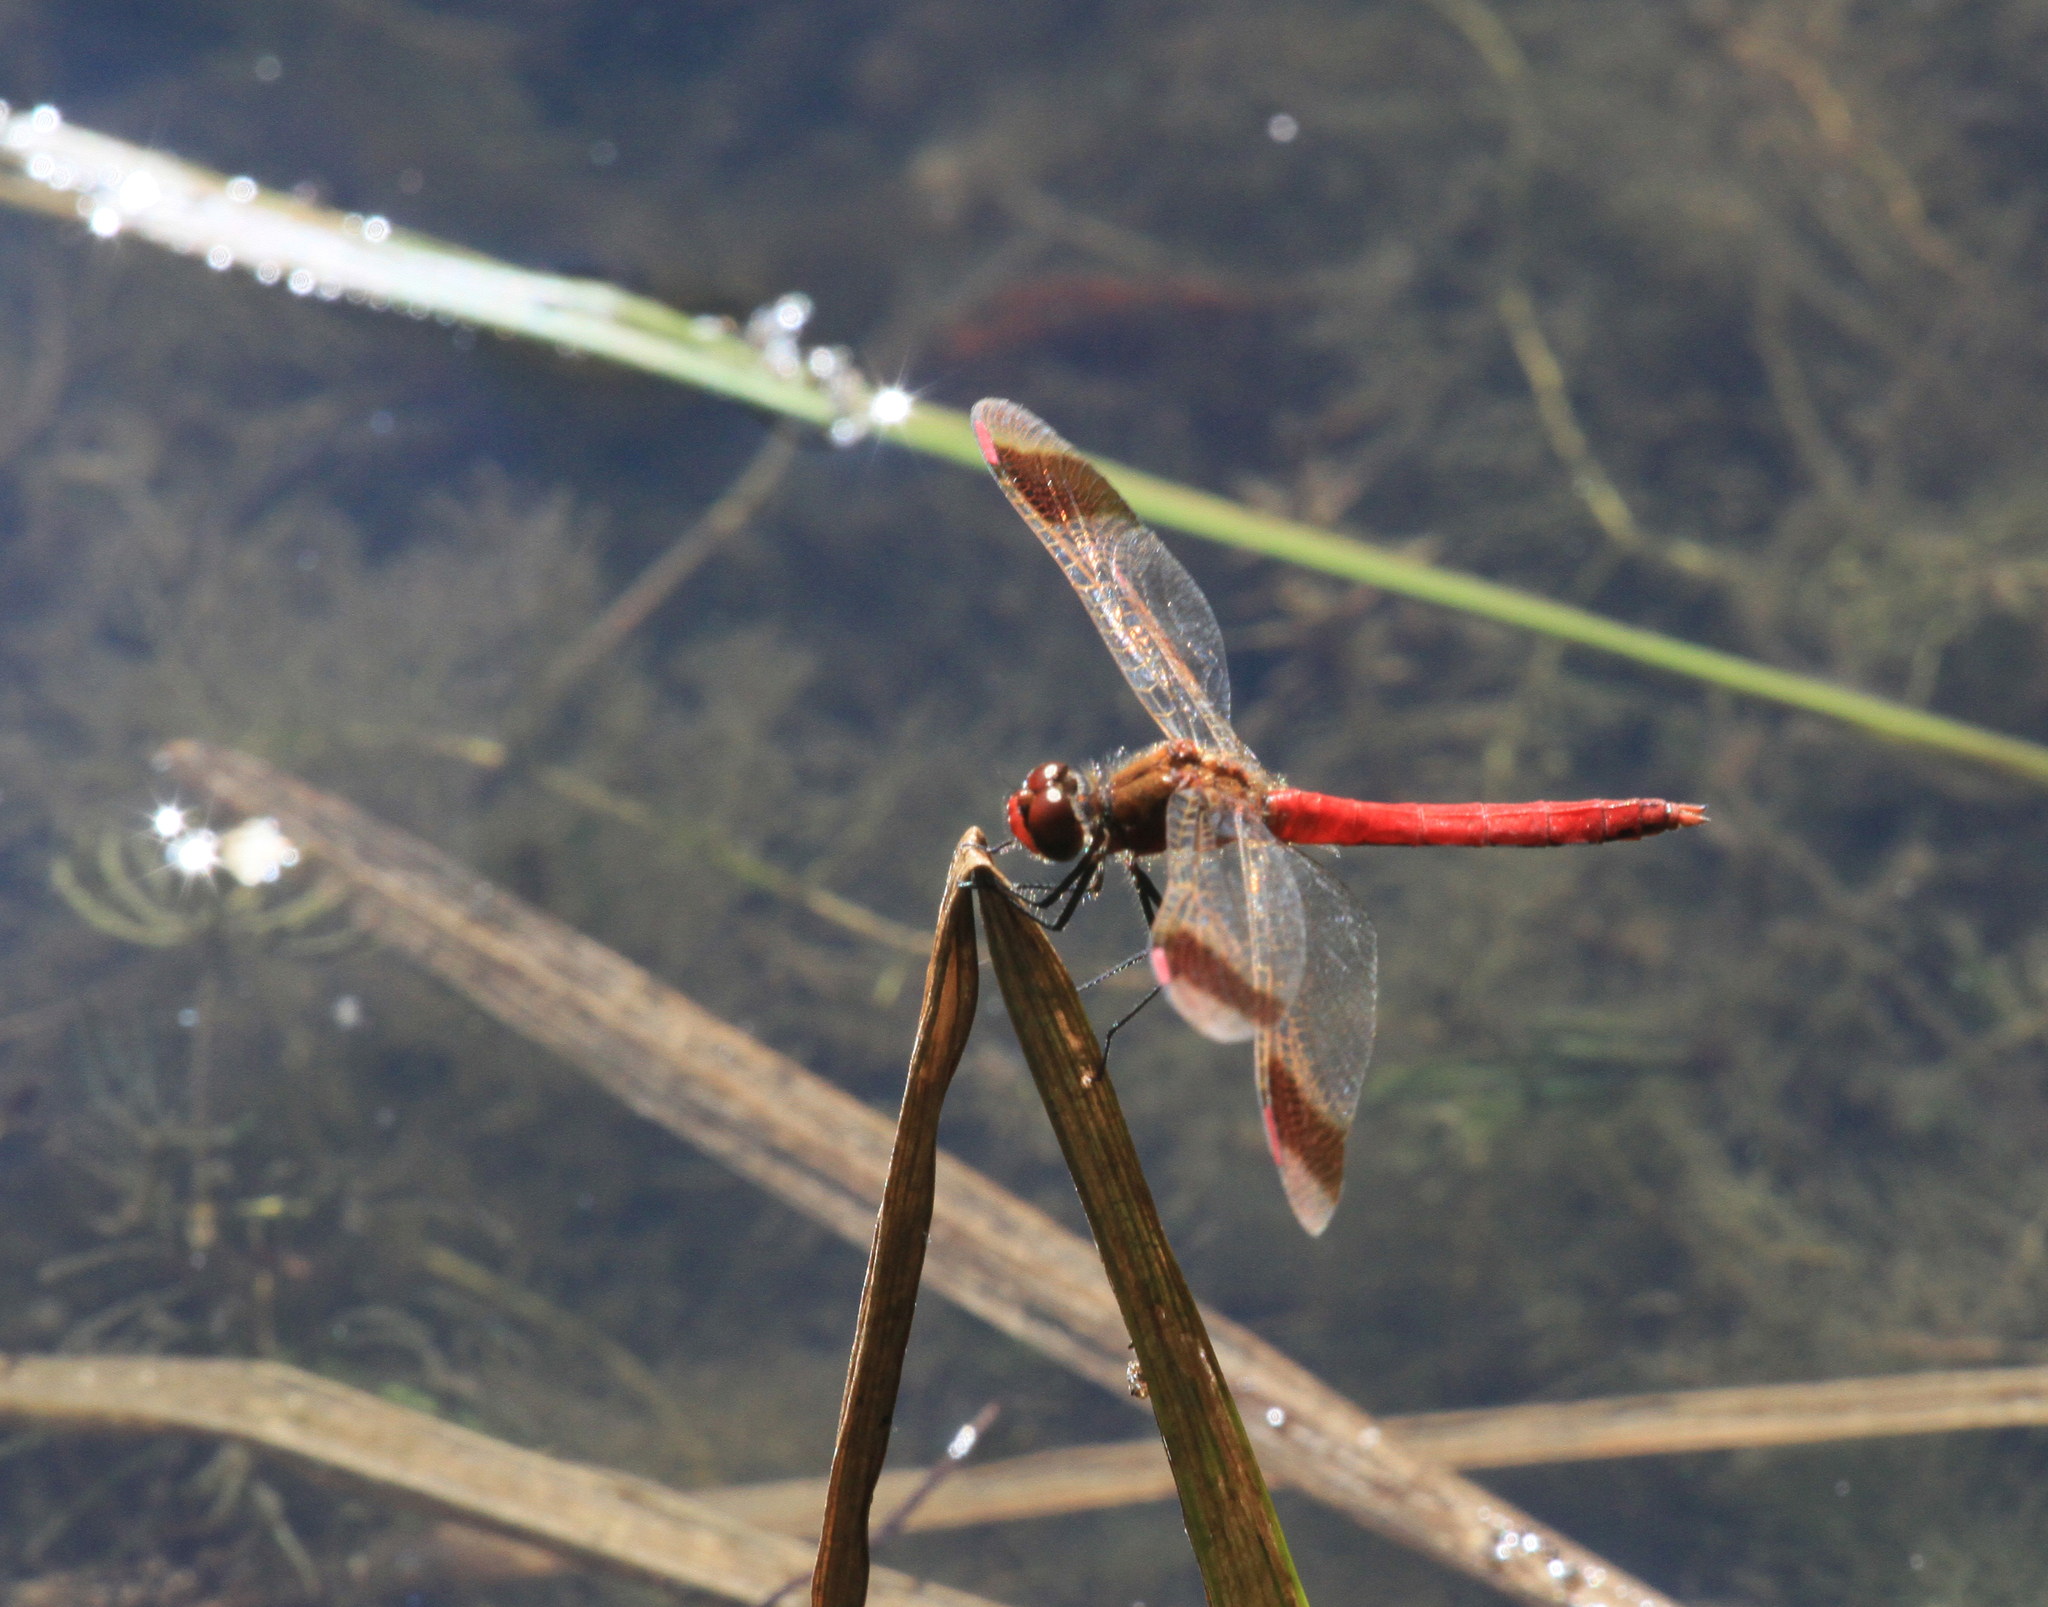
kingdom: Animalia
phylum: Arthropoda
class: Insecta
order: Odonata
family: Libellulidae
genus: Sympetrum
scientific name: Sympetrum pedemontanum
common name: Banded darter
